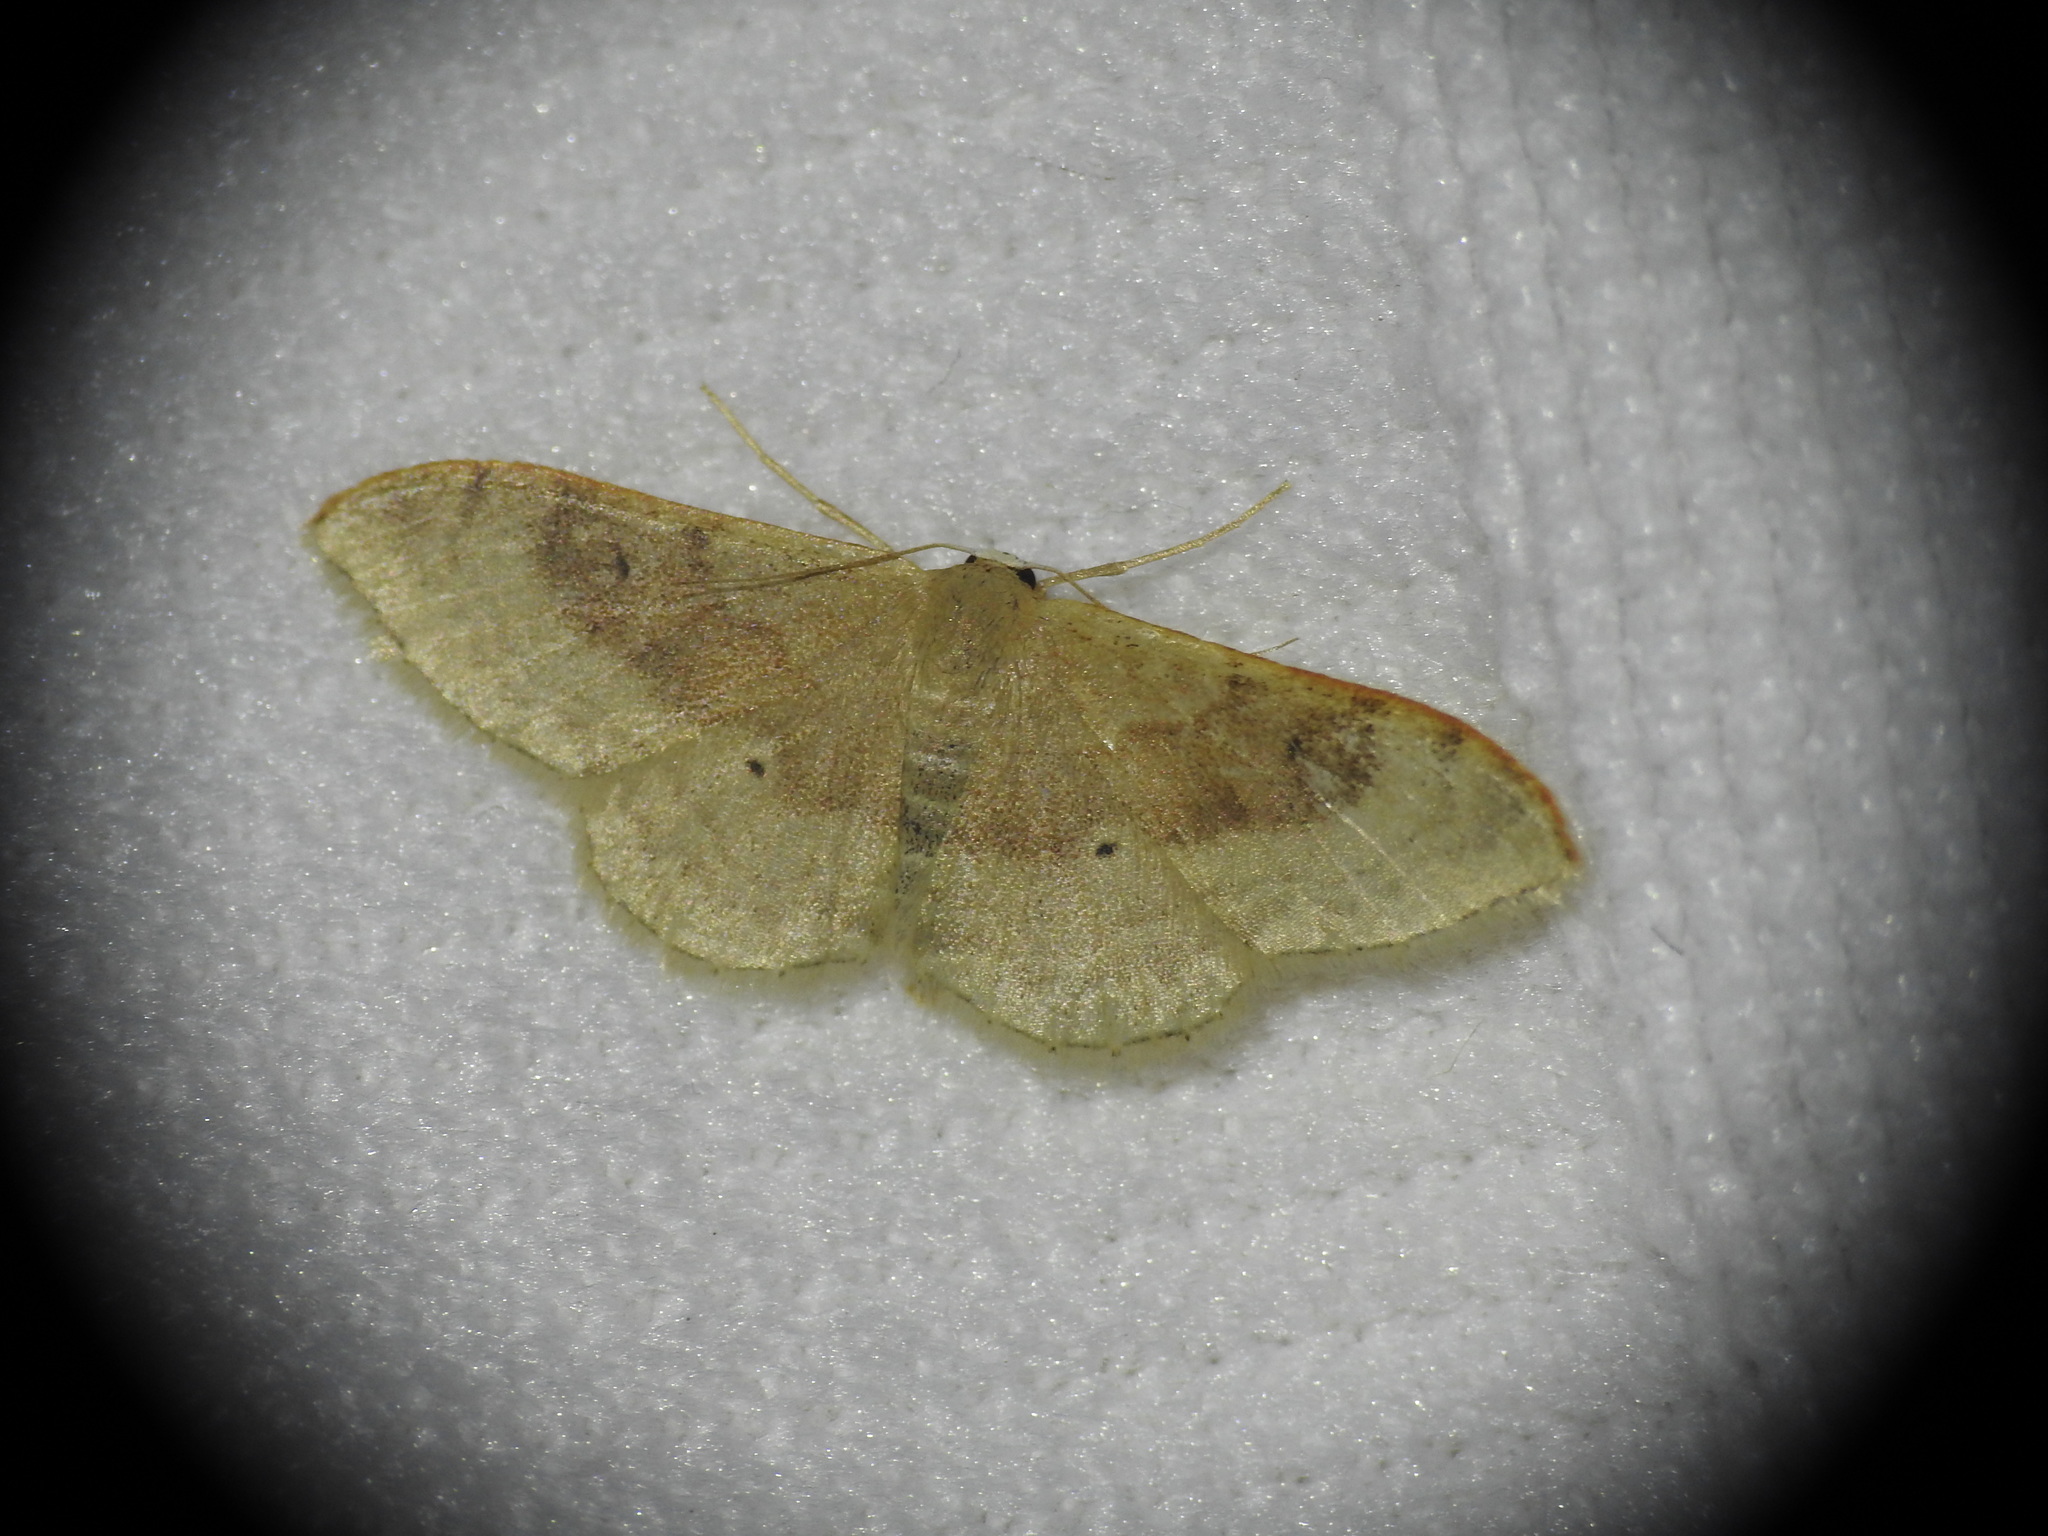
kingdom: Animalia
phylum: Arthropoda
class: Insecta
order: Lepidoptera
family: Geometridae
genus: Idaea
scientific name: Idaea degeneraria
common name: Portland ribbon wave
